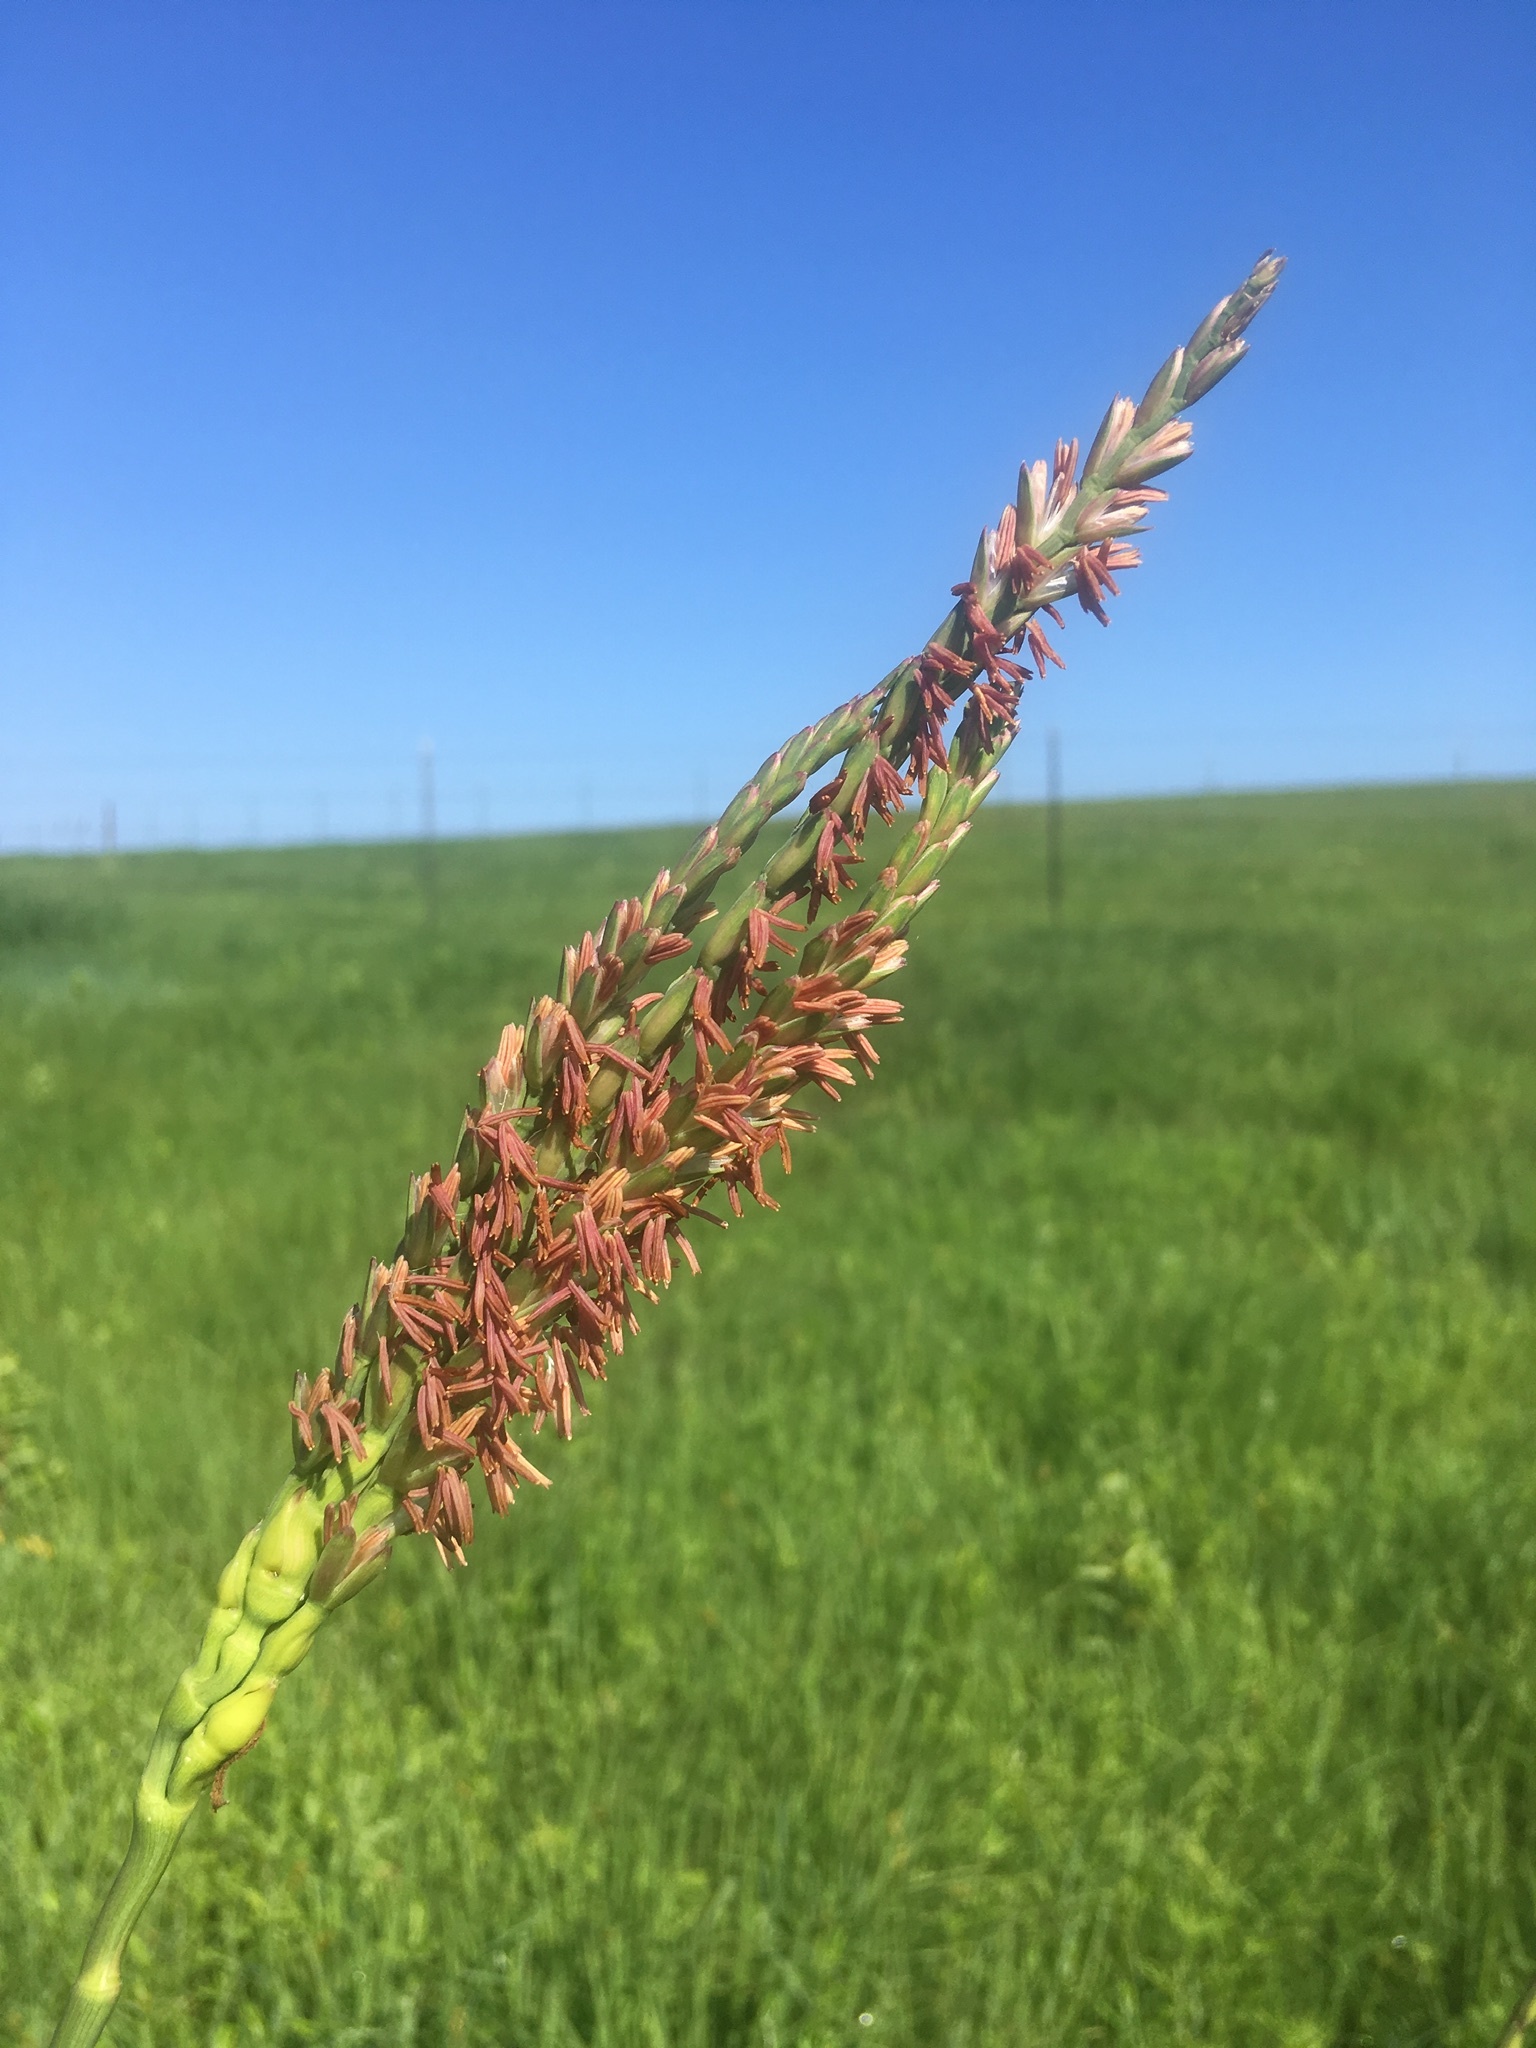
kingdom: Plantae
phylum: Tracheophyta
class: Liliopsida
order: Poales
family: Poaceae
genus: Tripsacum
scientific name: Tripsacum dactyloides
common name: Buffalo-grass
